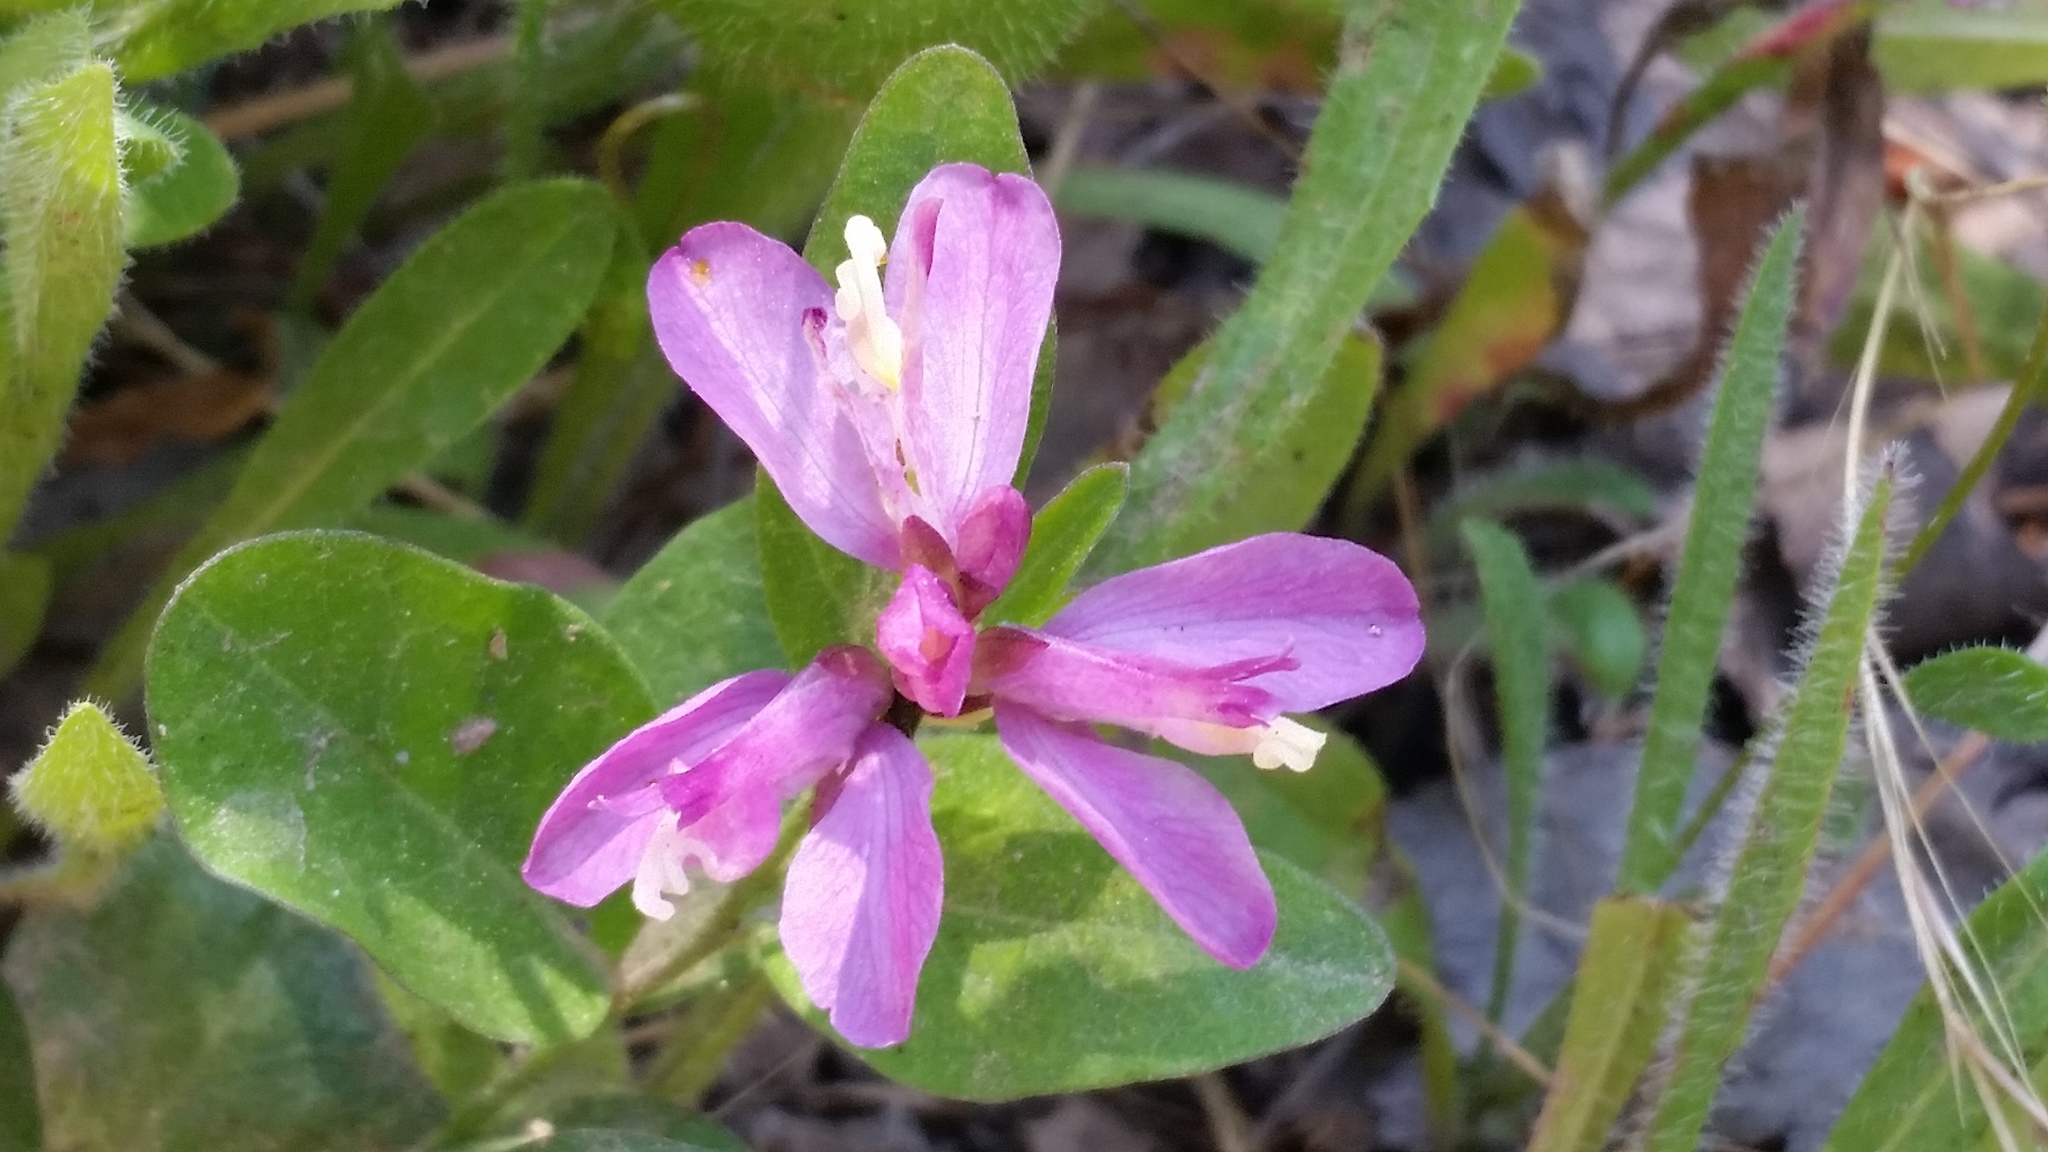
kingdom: Plantae
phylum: Tracheophyta
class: Magnoliopsida
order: Fabales
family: Polygalaceae
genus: Rhinotropis
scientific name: Rhinotropis californica
